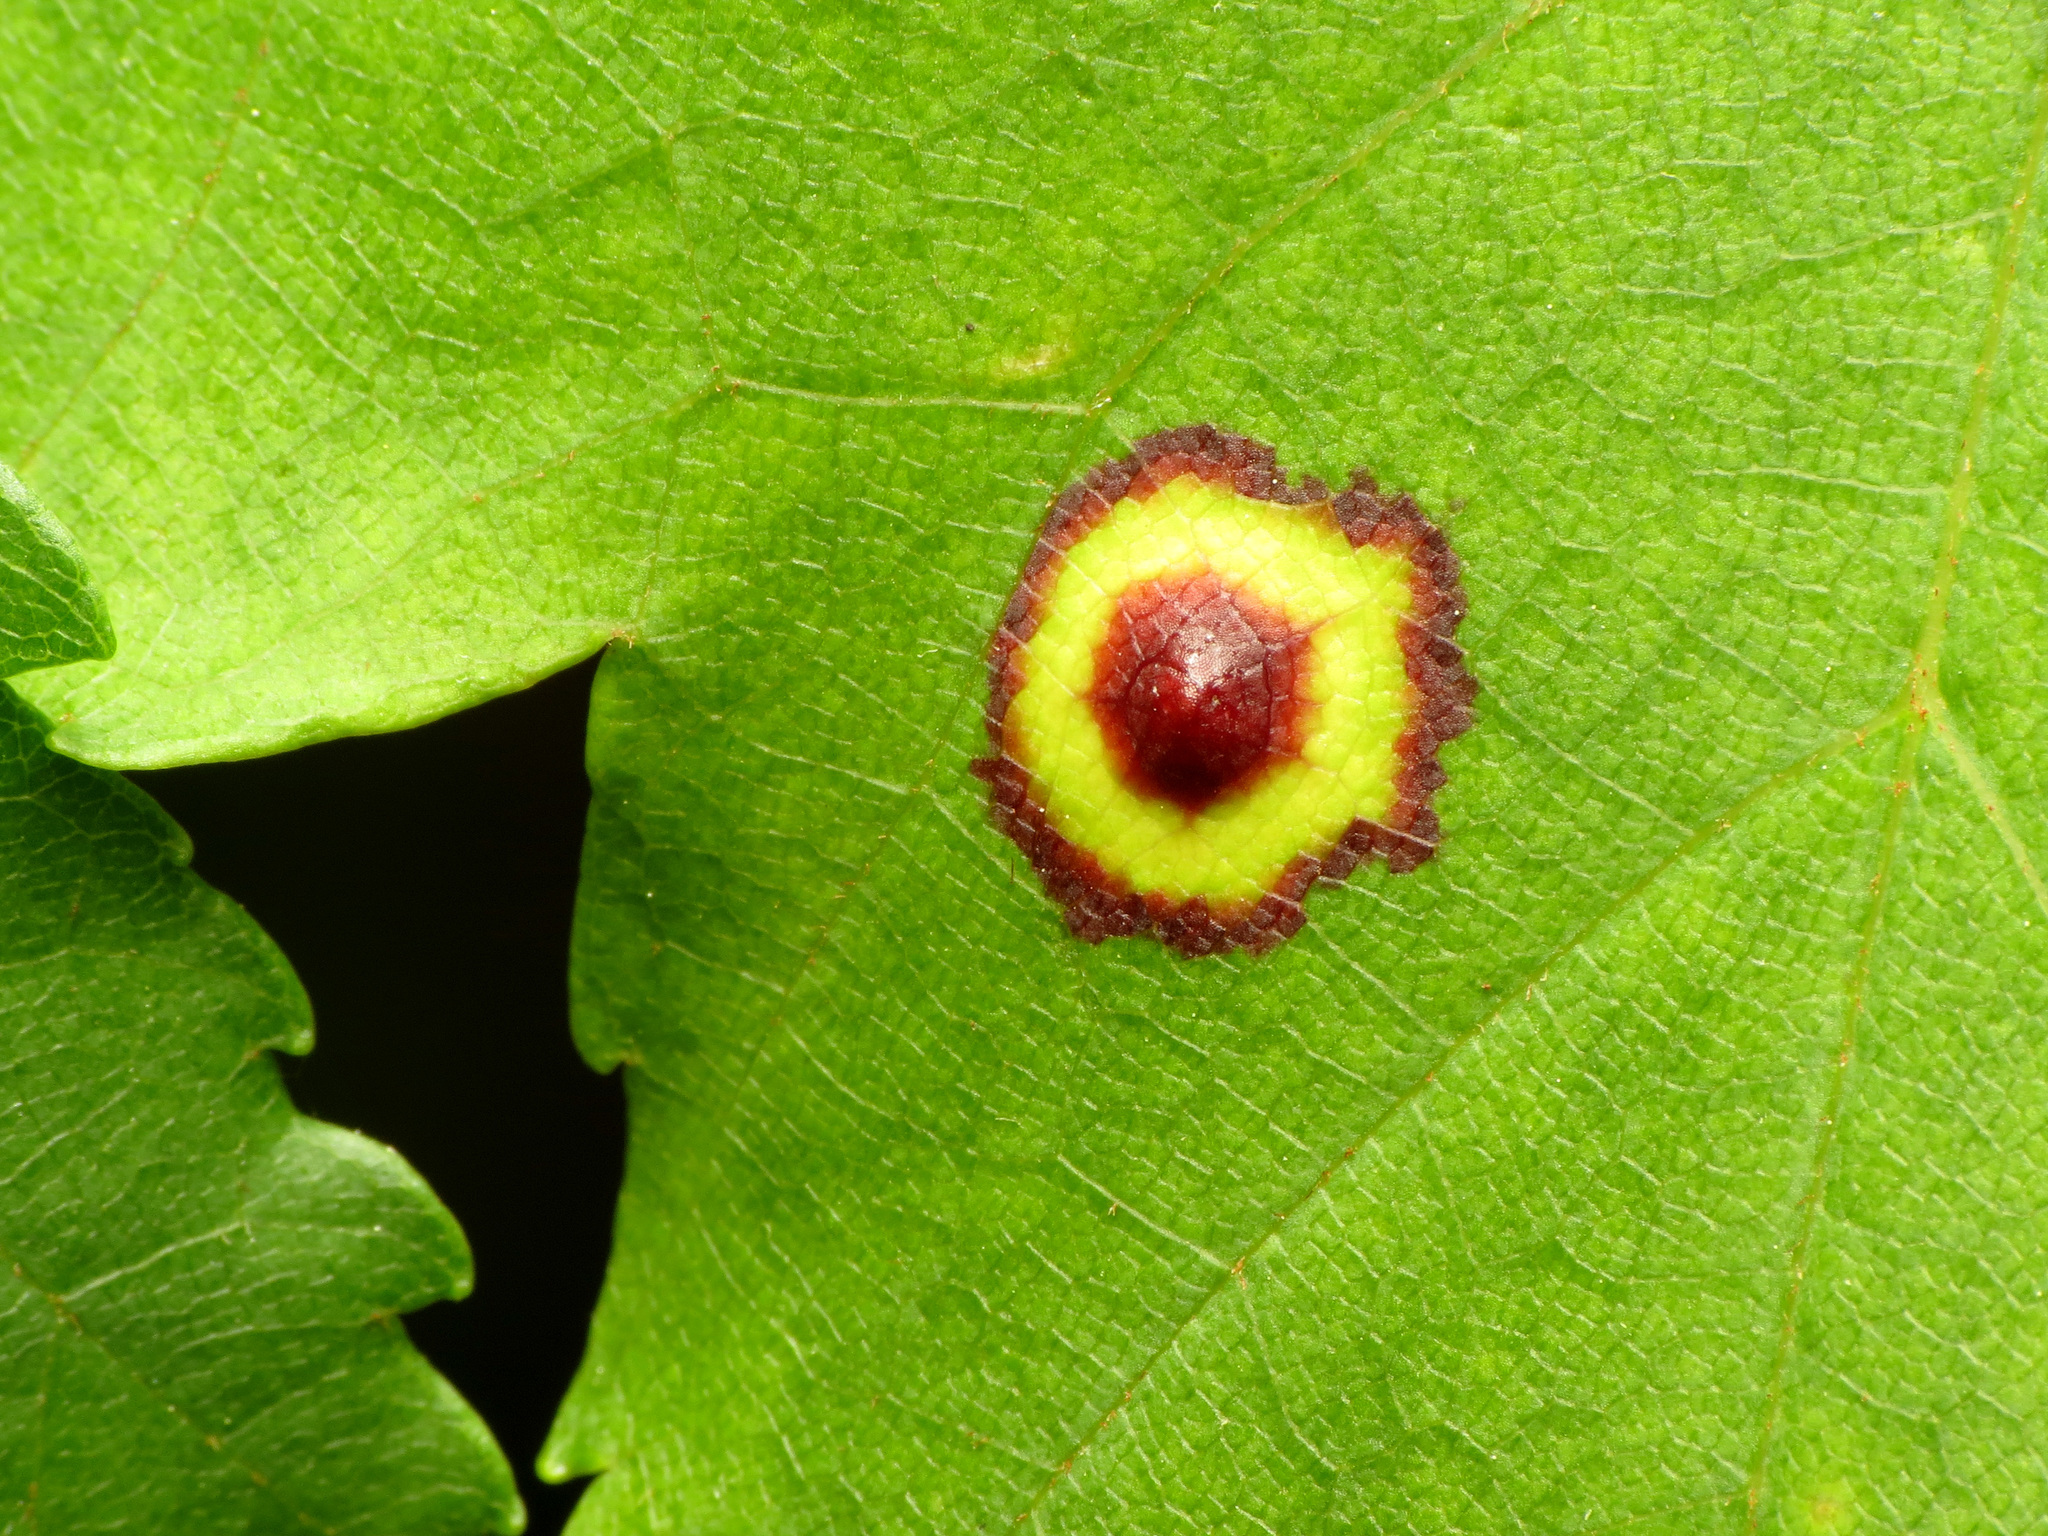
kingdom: Animalia
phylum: Arthropoda
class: Insecta
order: Diptera
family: Cecidomyiidae
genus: Acericecis
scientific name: Acericecis ocellaris
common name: Ocellate gall midge
